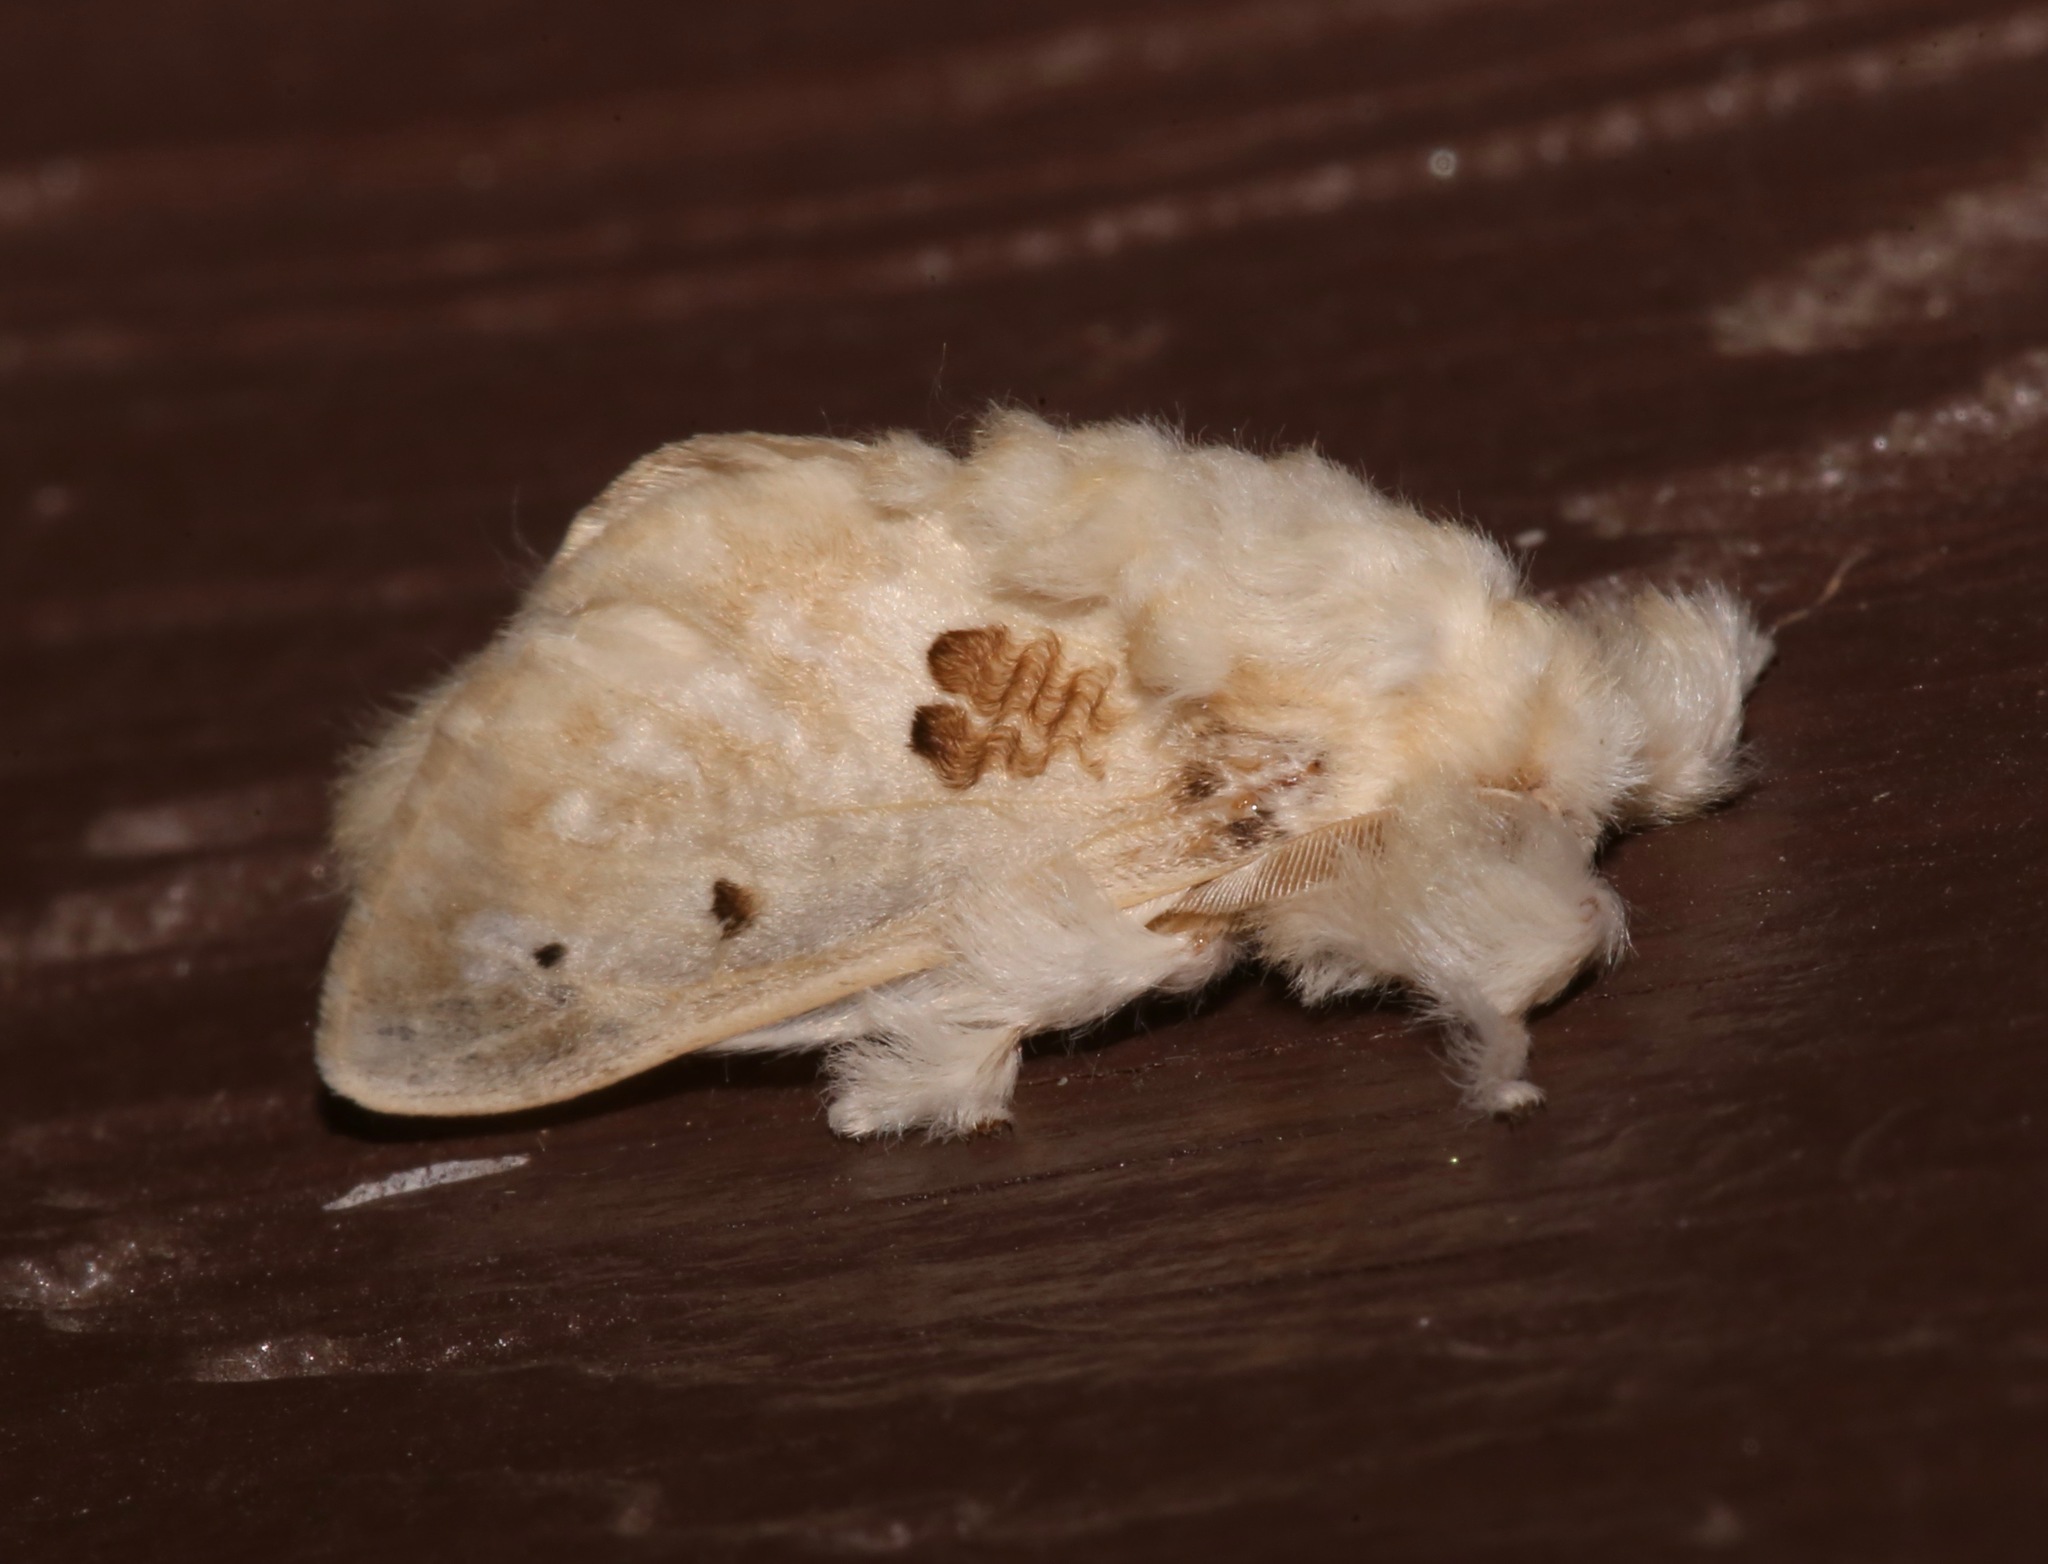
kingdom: Animalia
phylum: Arthropoda
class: Insecta
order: Lepidoptera
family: Megalopygidae
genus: Megalopyge
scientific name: Megalopyge lapena
